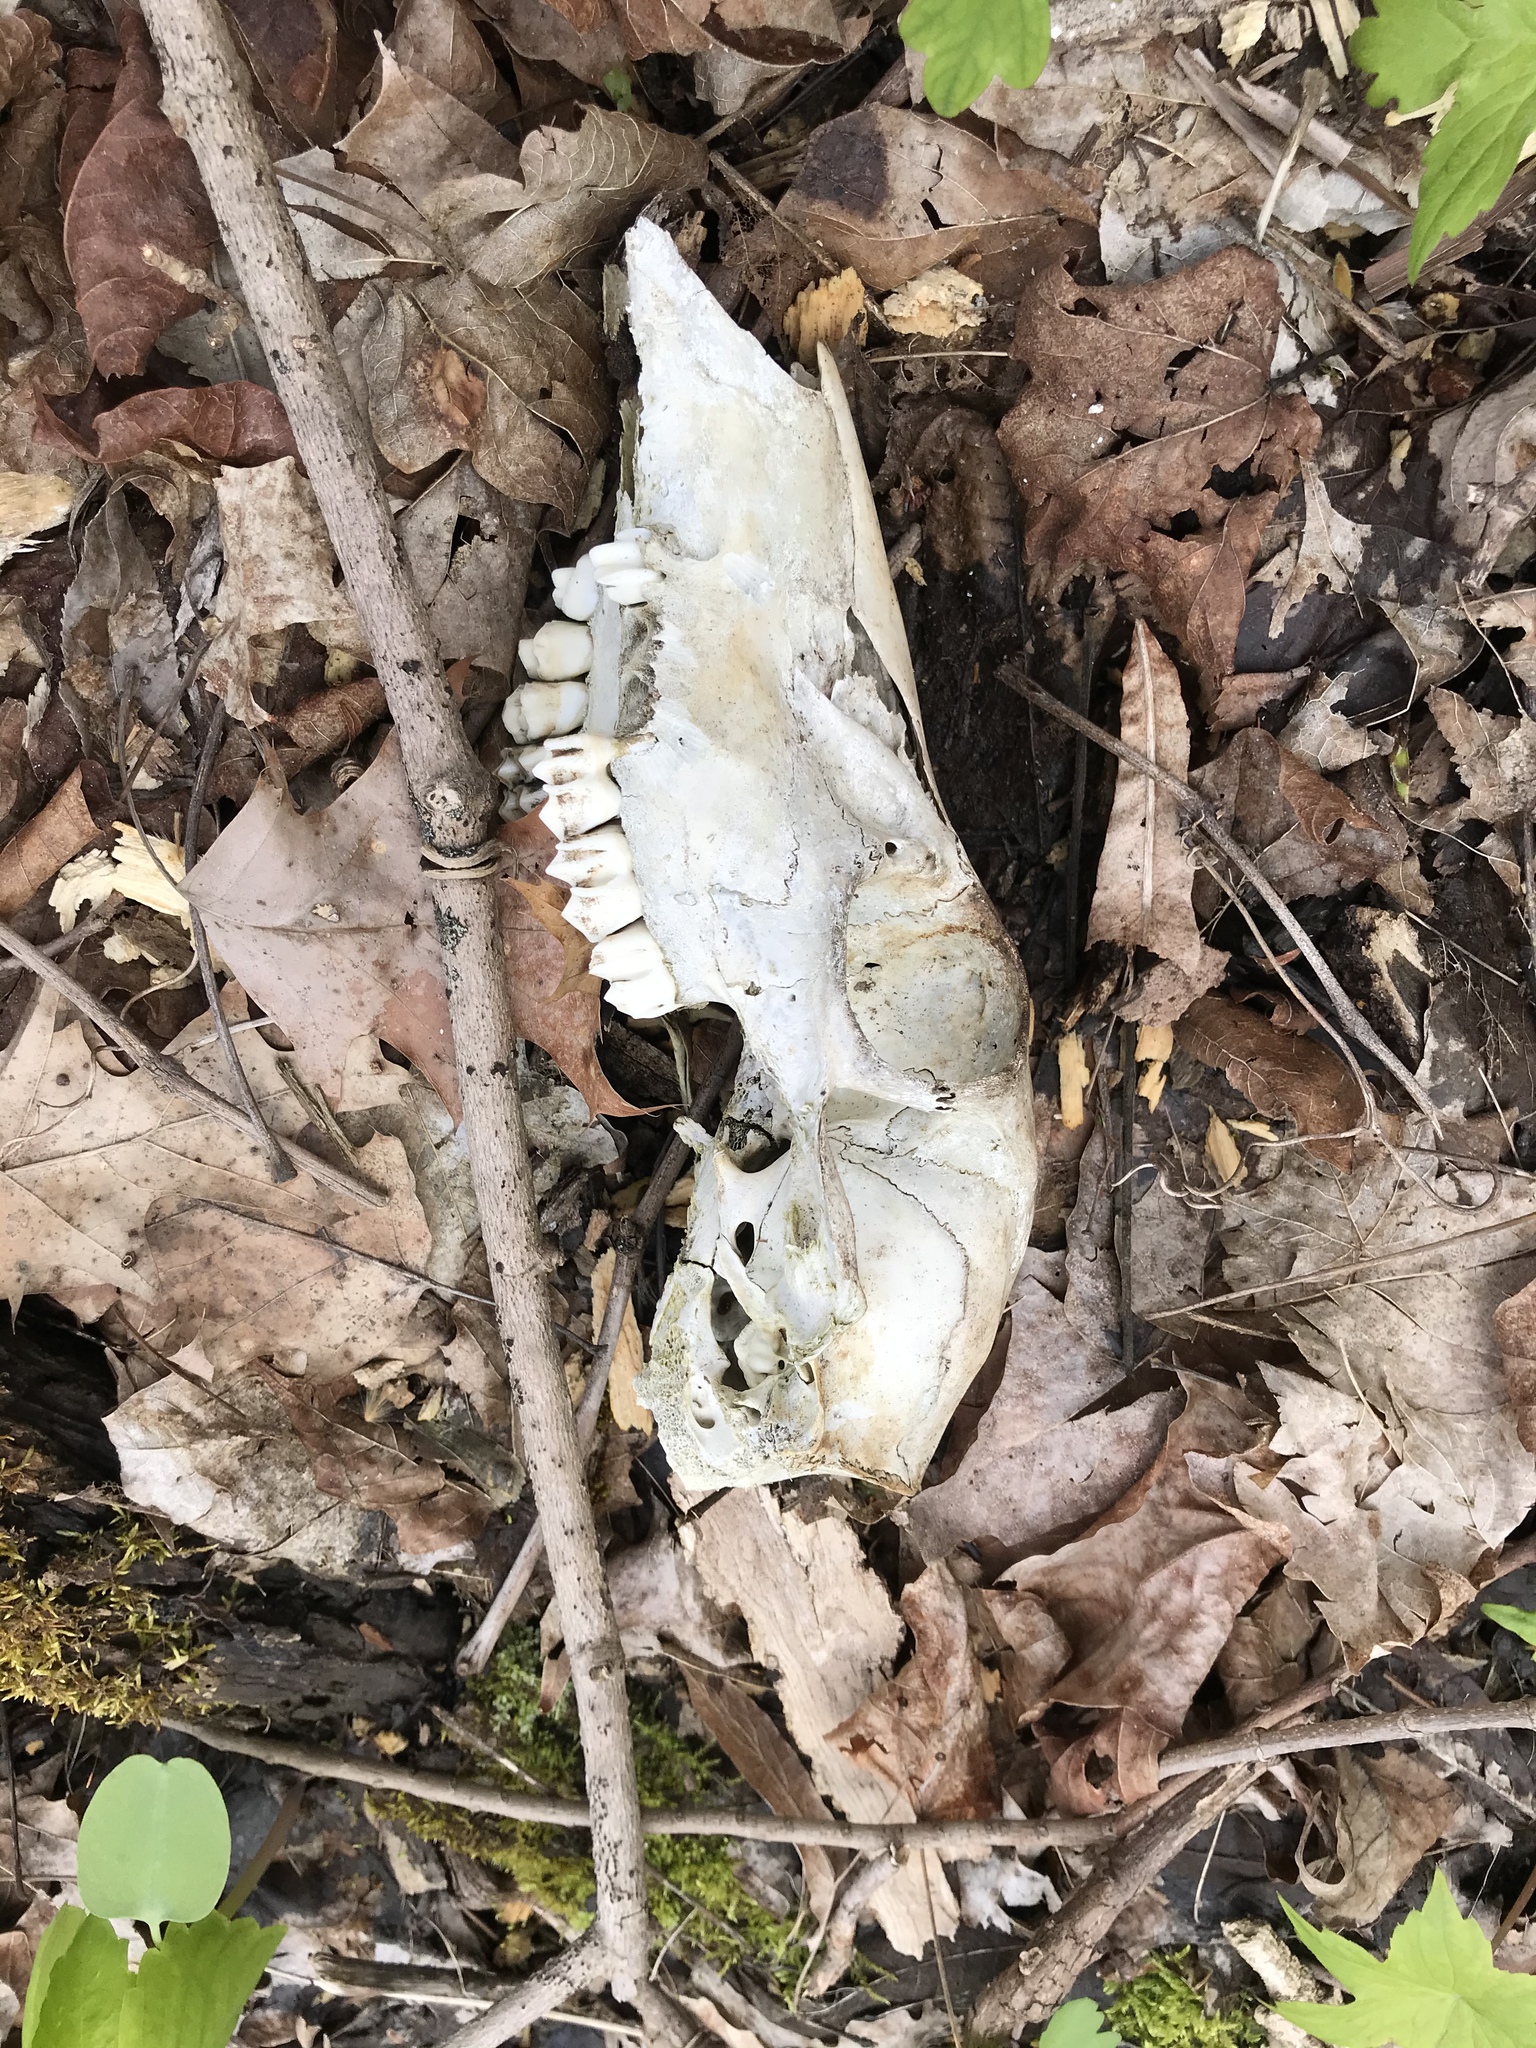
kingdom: Animalia
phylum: Chordata
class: Mammalia
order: Artiodactyla
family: Cervidae
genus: Odocoileus
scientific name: Odocoileus virginianus
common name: White-tailed deer
